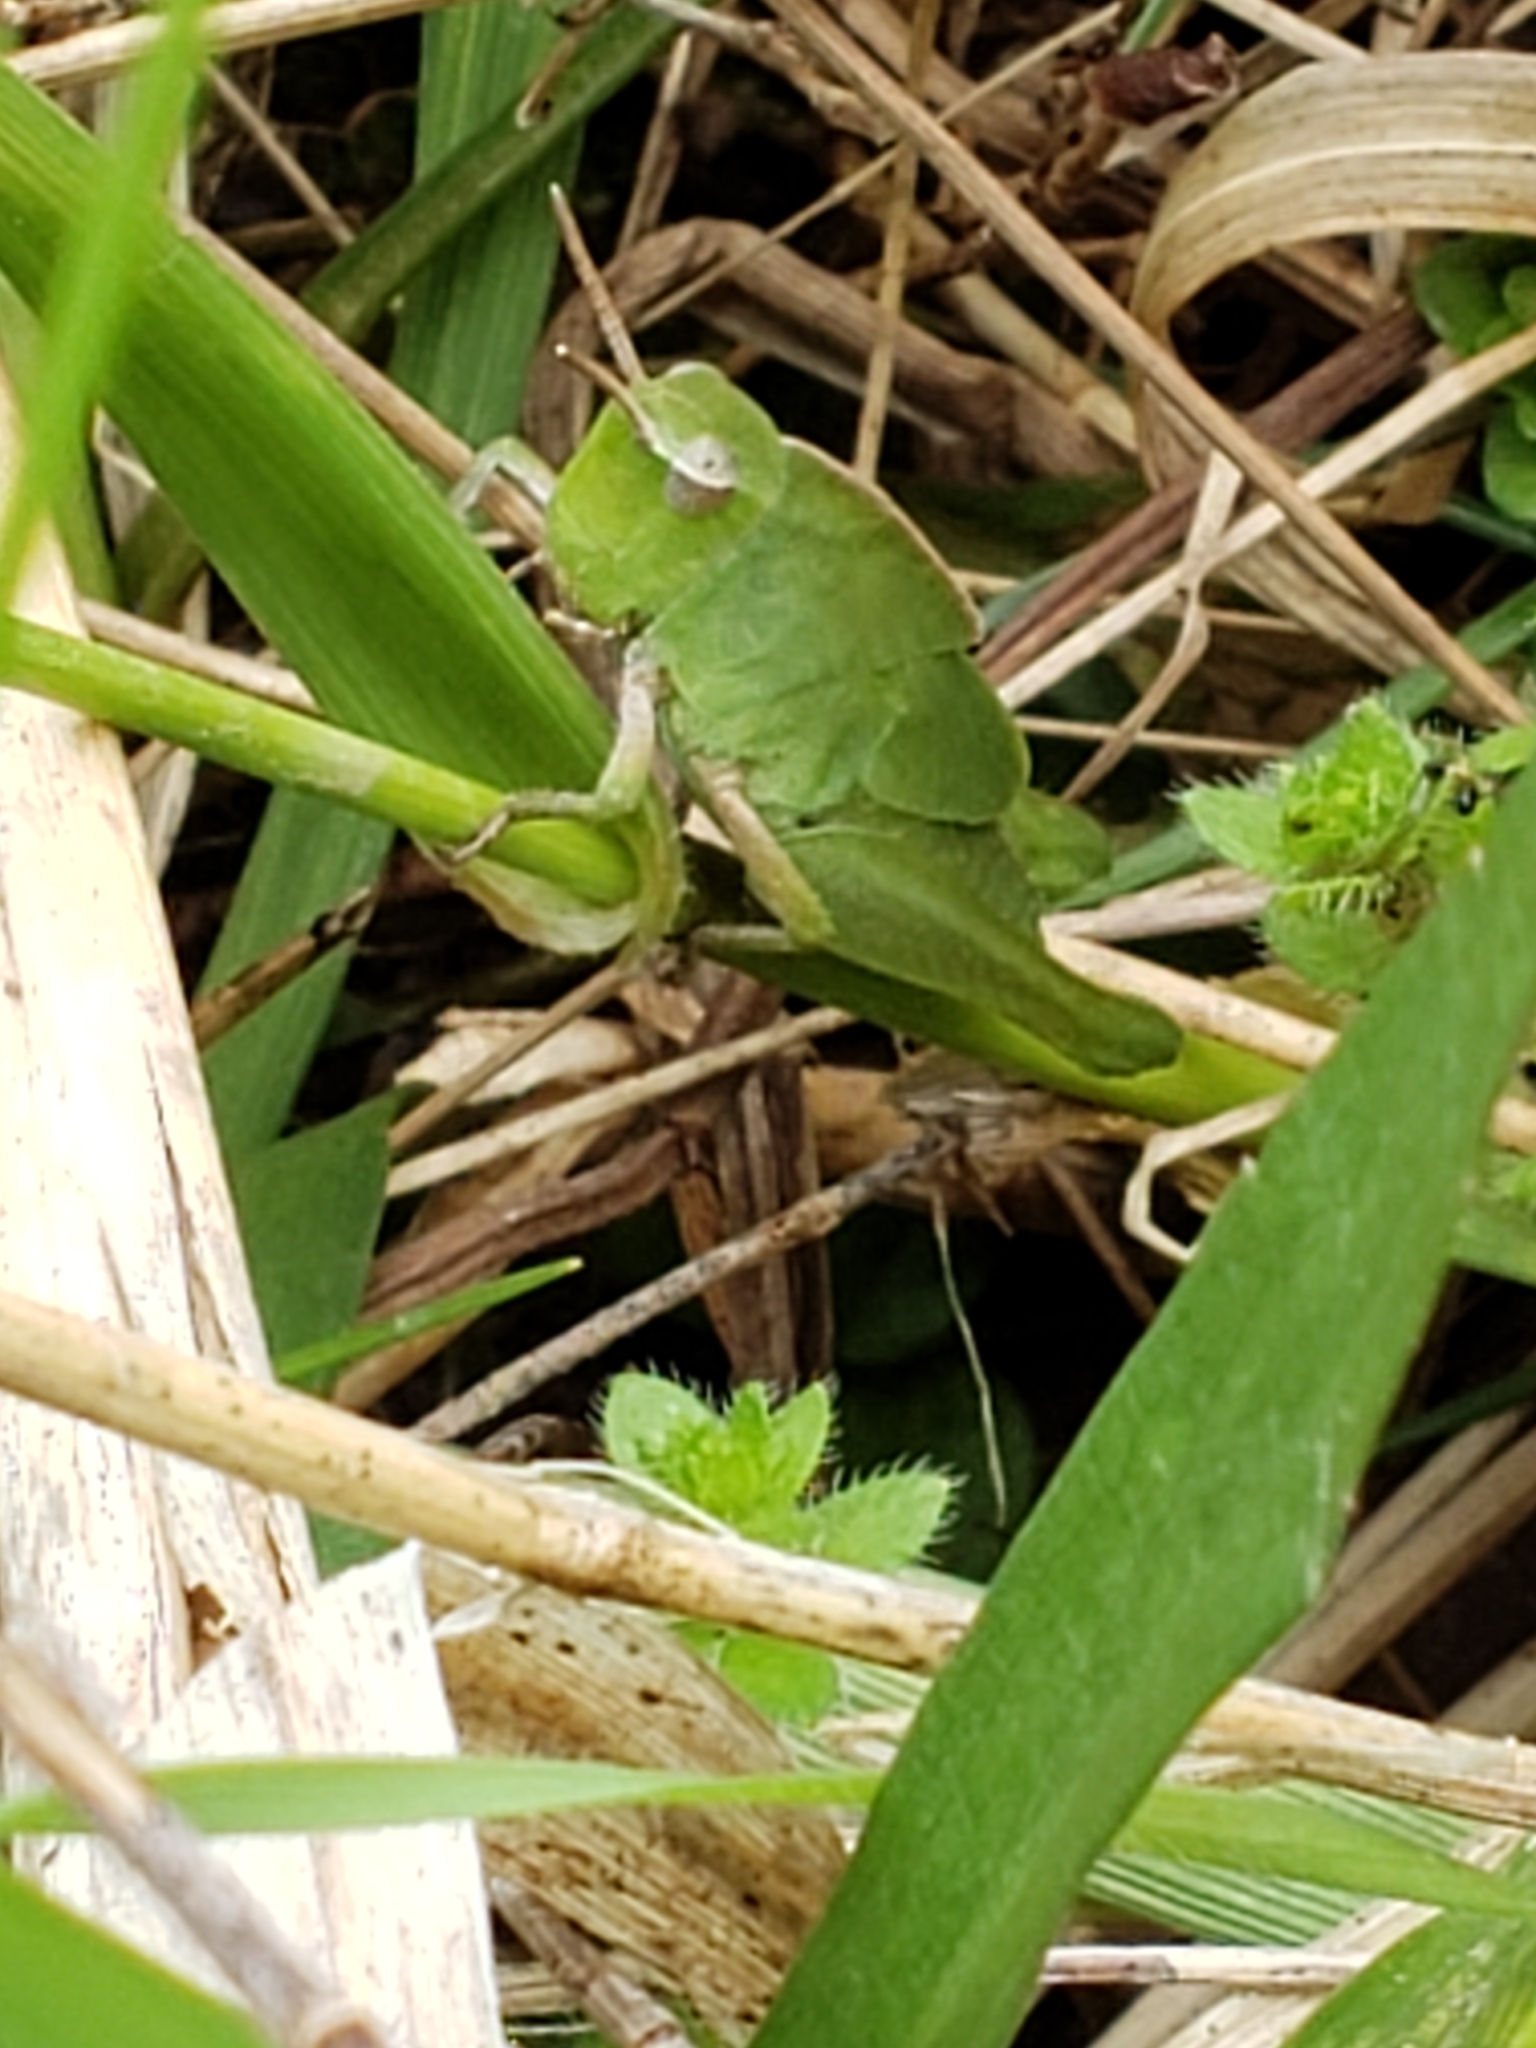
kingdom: Animalia
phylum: Arthropoda
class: Insecta
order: Orthoptera
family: Acrididae
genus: Chortophaga
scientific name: Chortophaga viridifasciata
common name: Green-striped grasshopper
